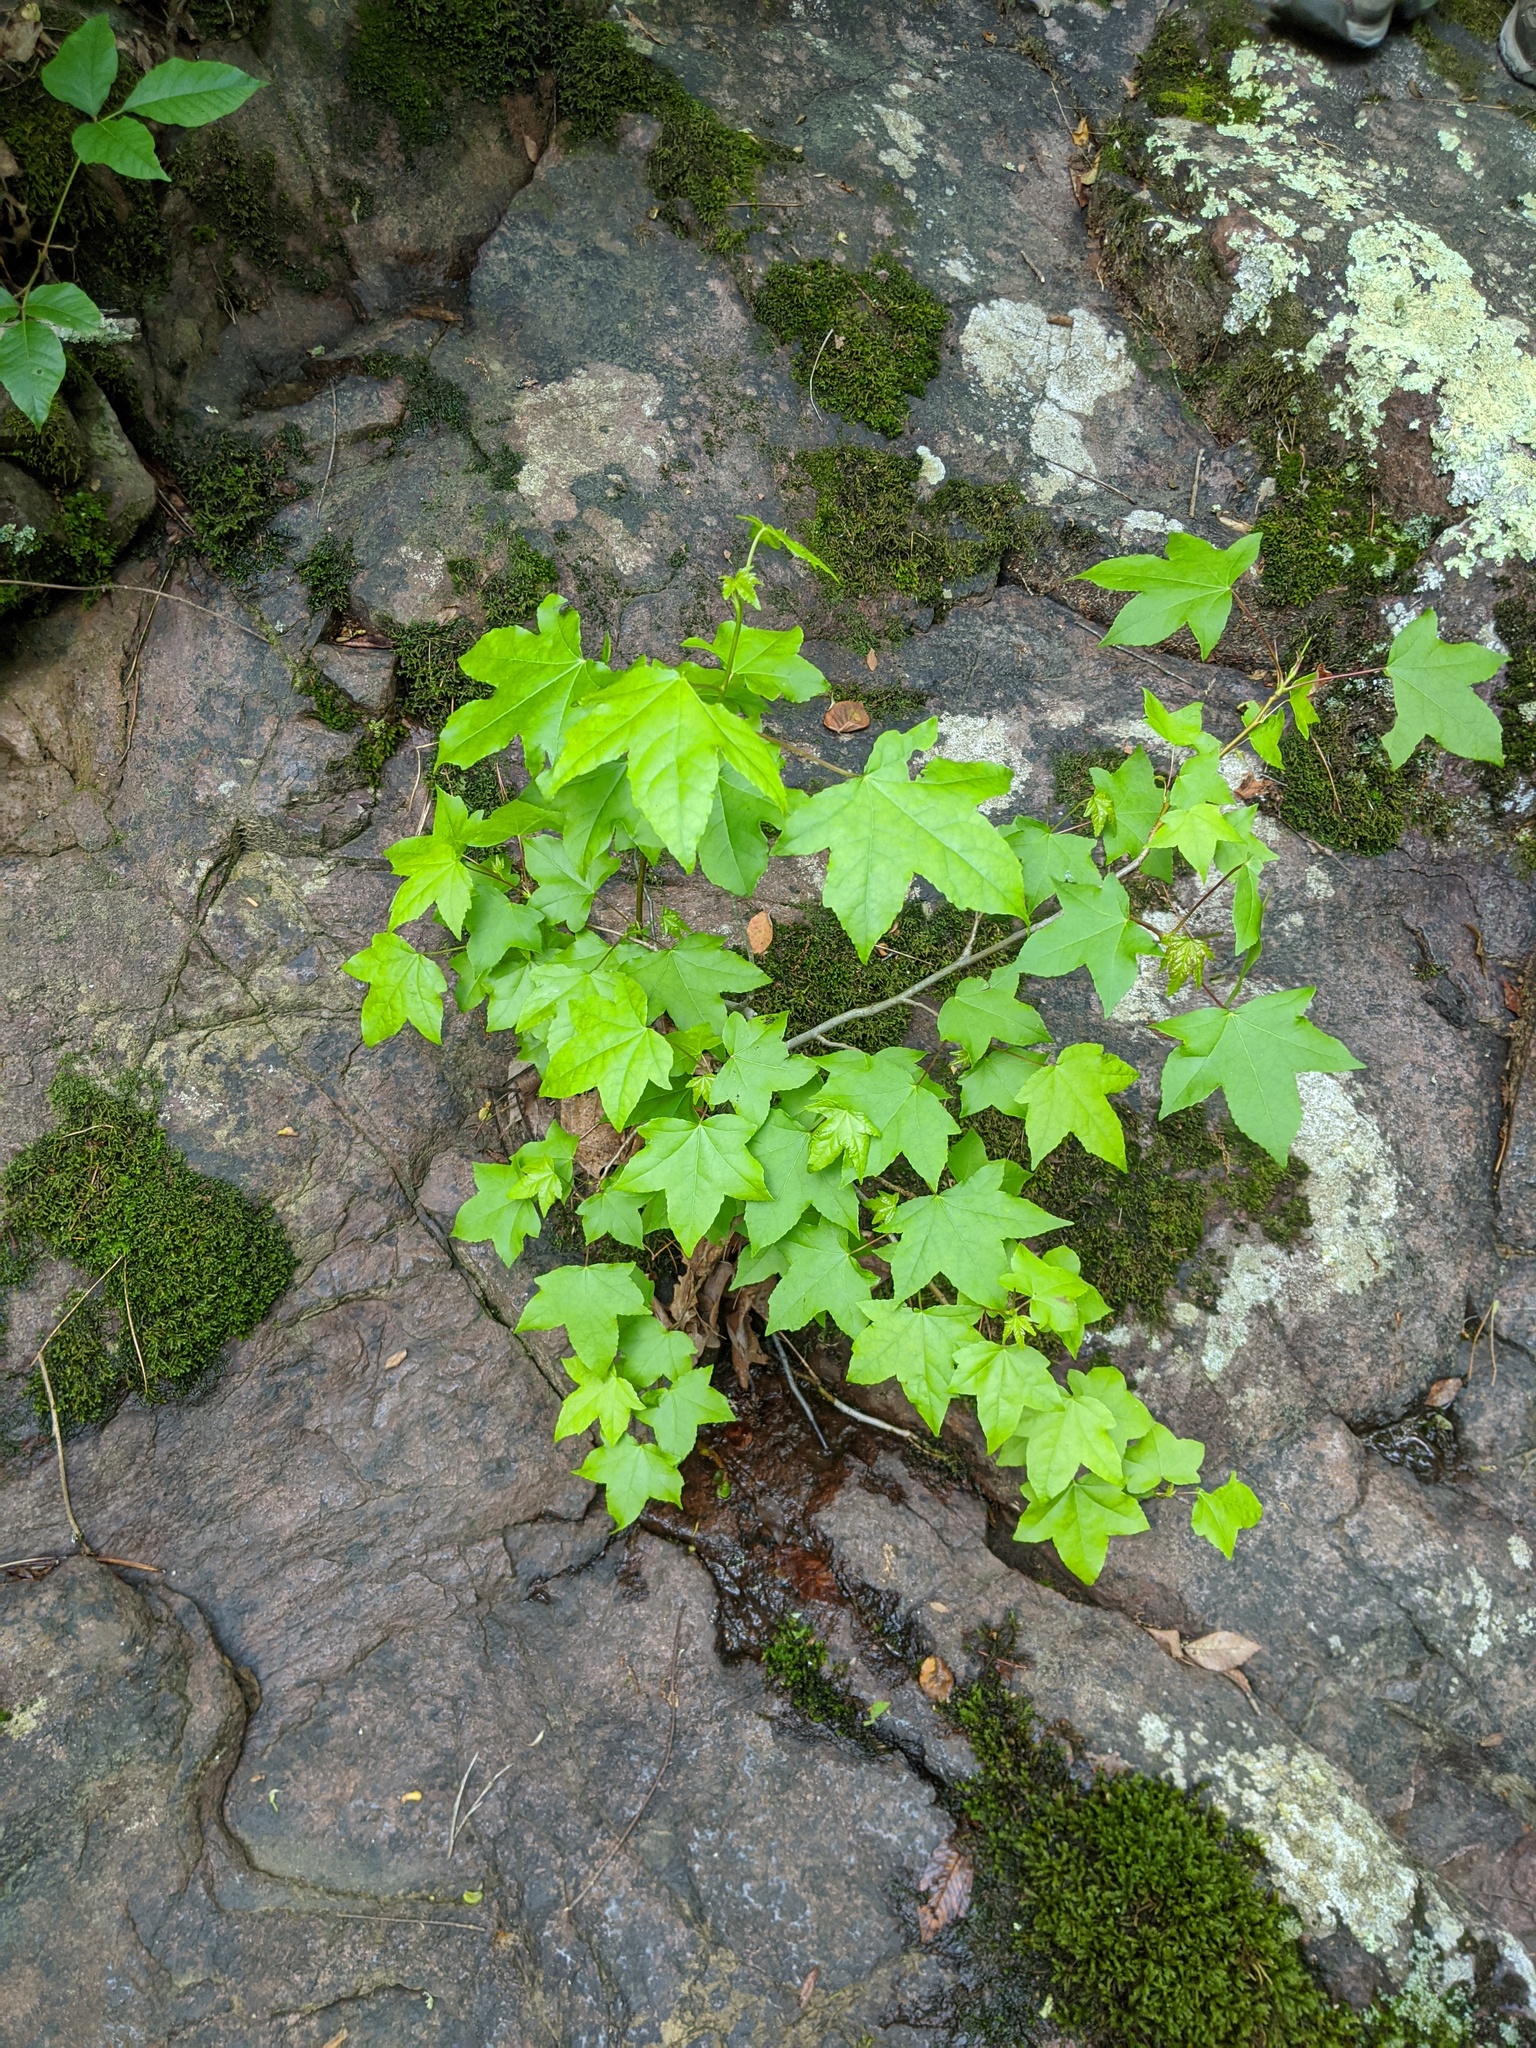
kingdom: Plantae
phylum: Tracheophyta
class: Magnoliopsida
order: Saxifragales
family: Altingiaceae
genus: Liquidambar
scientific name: Liquidambar styraciflua
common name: Sweet gum
